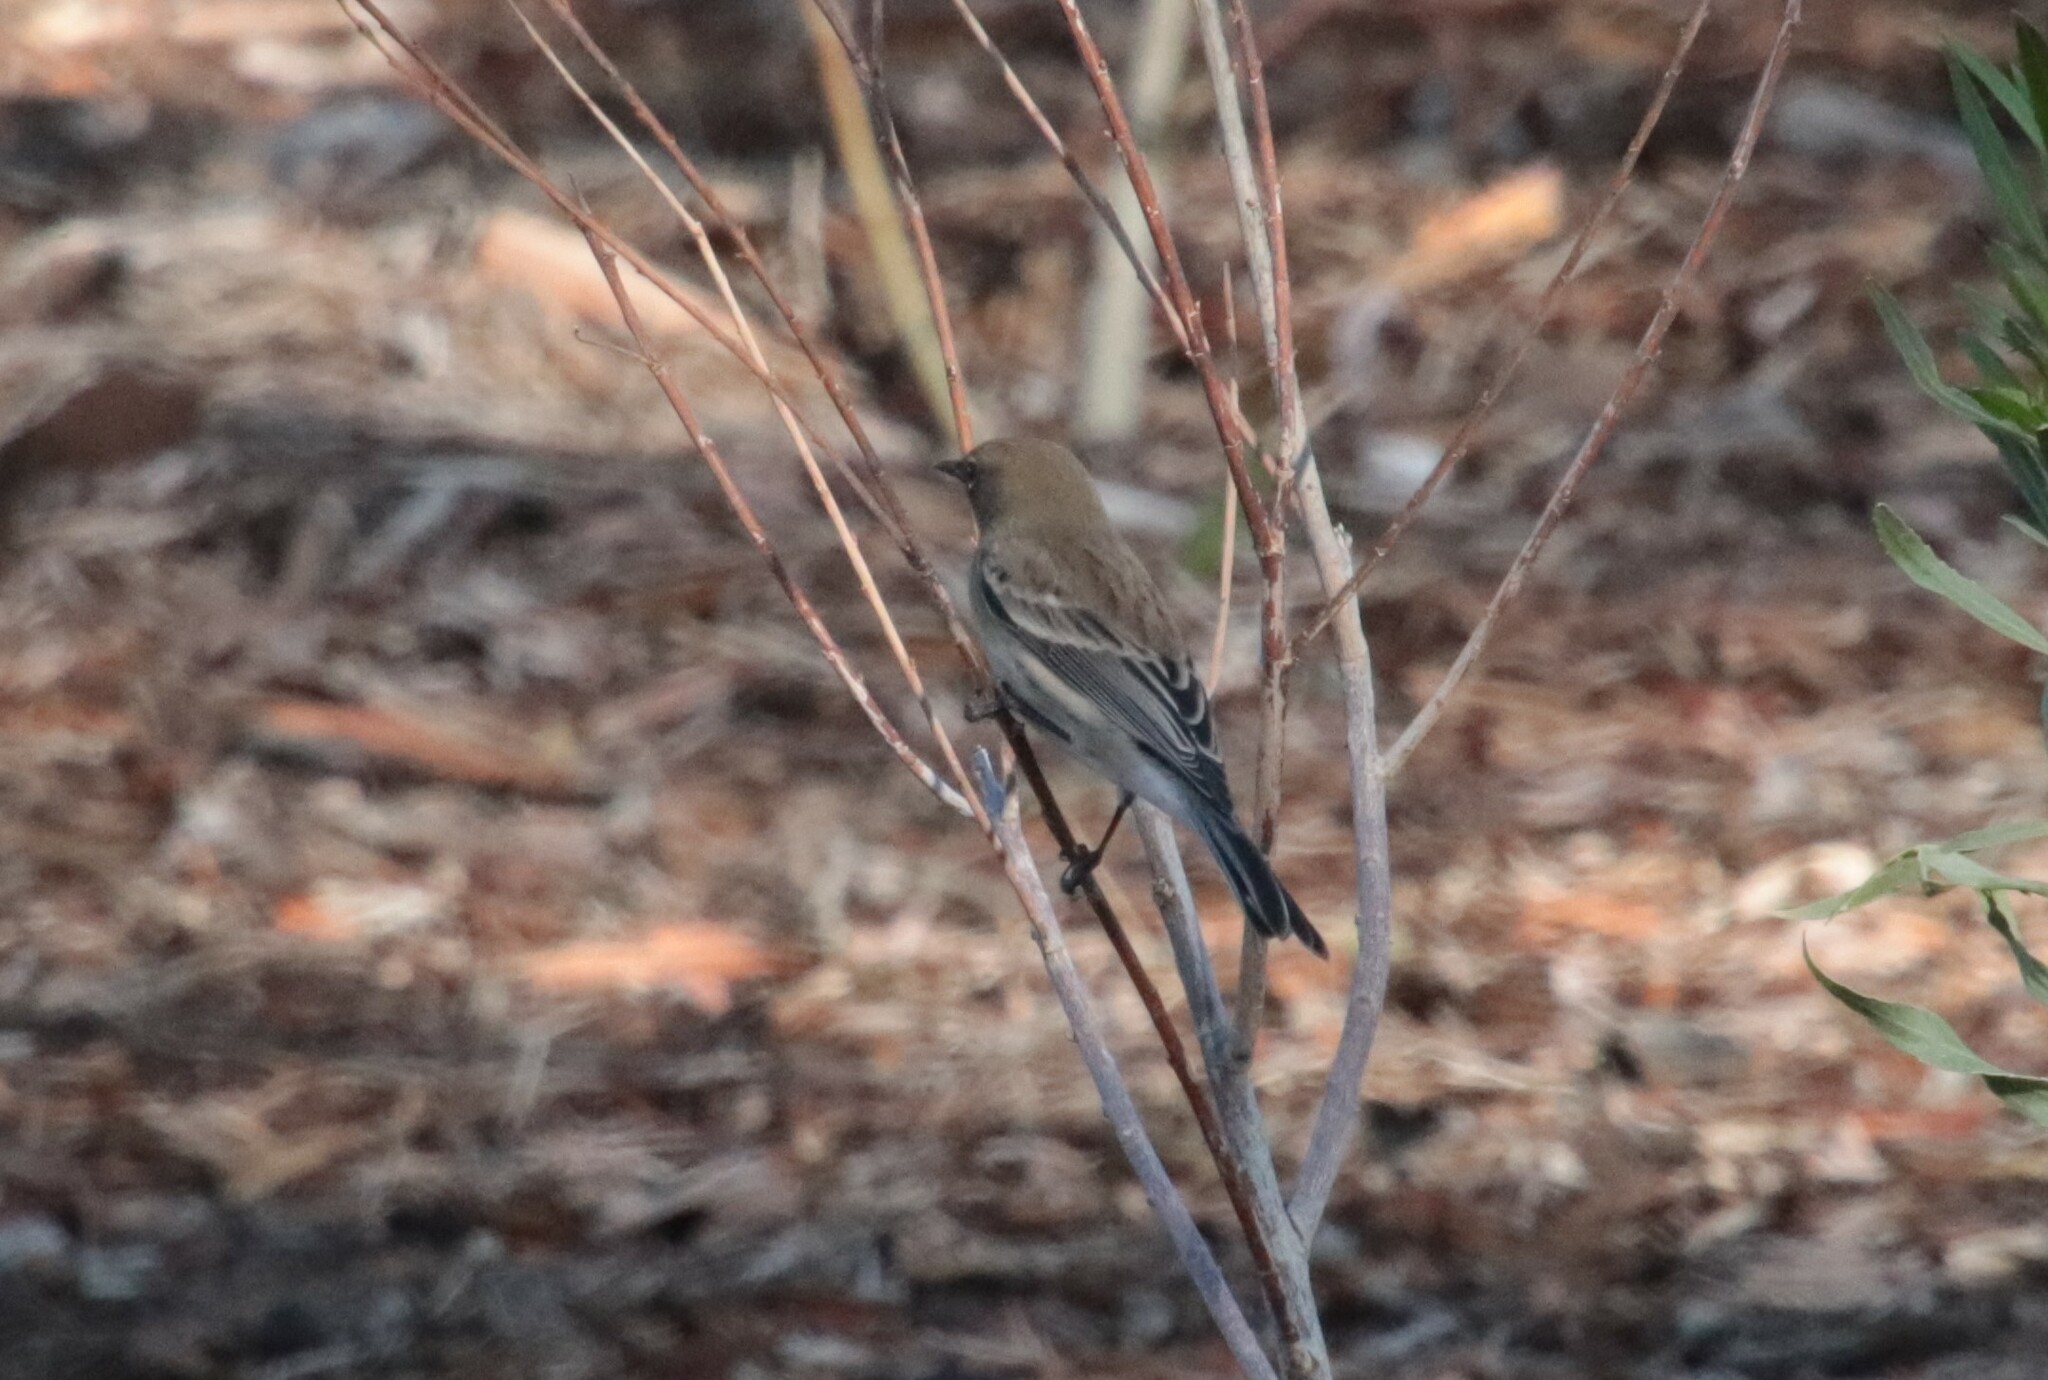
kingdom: Animalia
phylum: Chordata
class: Aves
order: Passeriformes
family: Parulidae
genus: Setophaga
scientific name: Setophaga coronata
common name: Myrtle warbler
